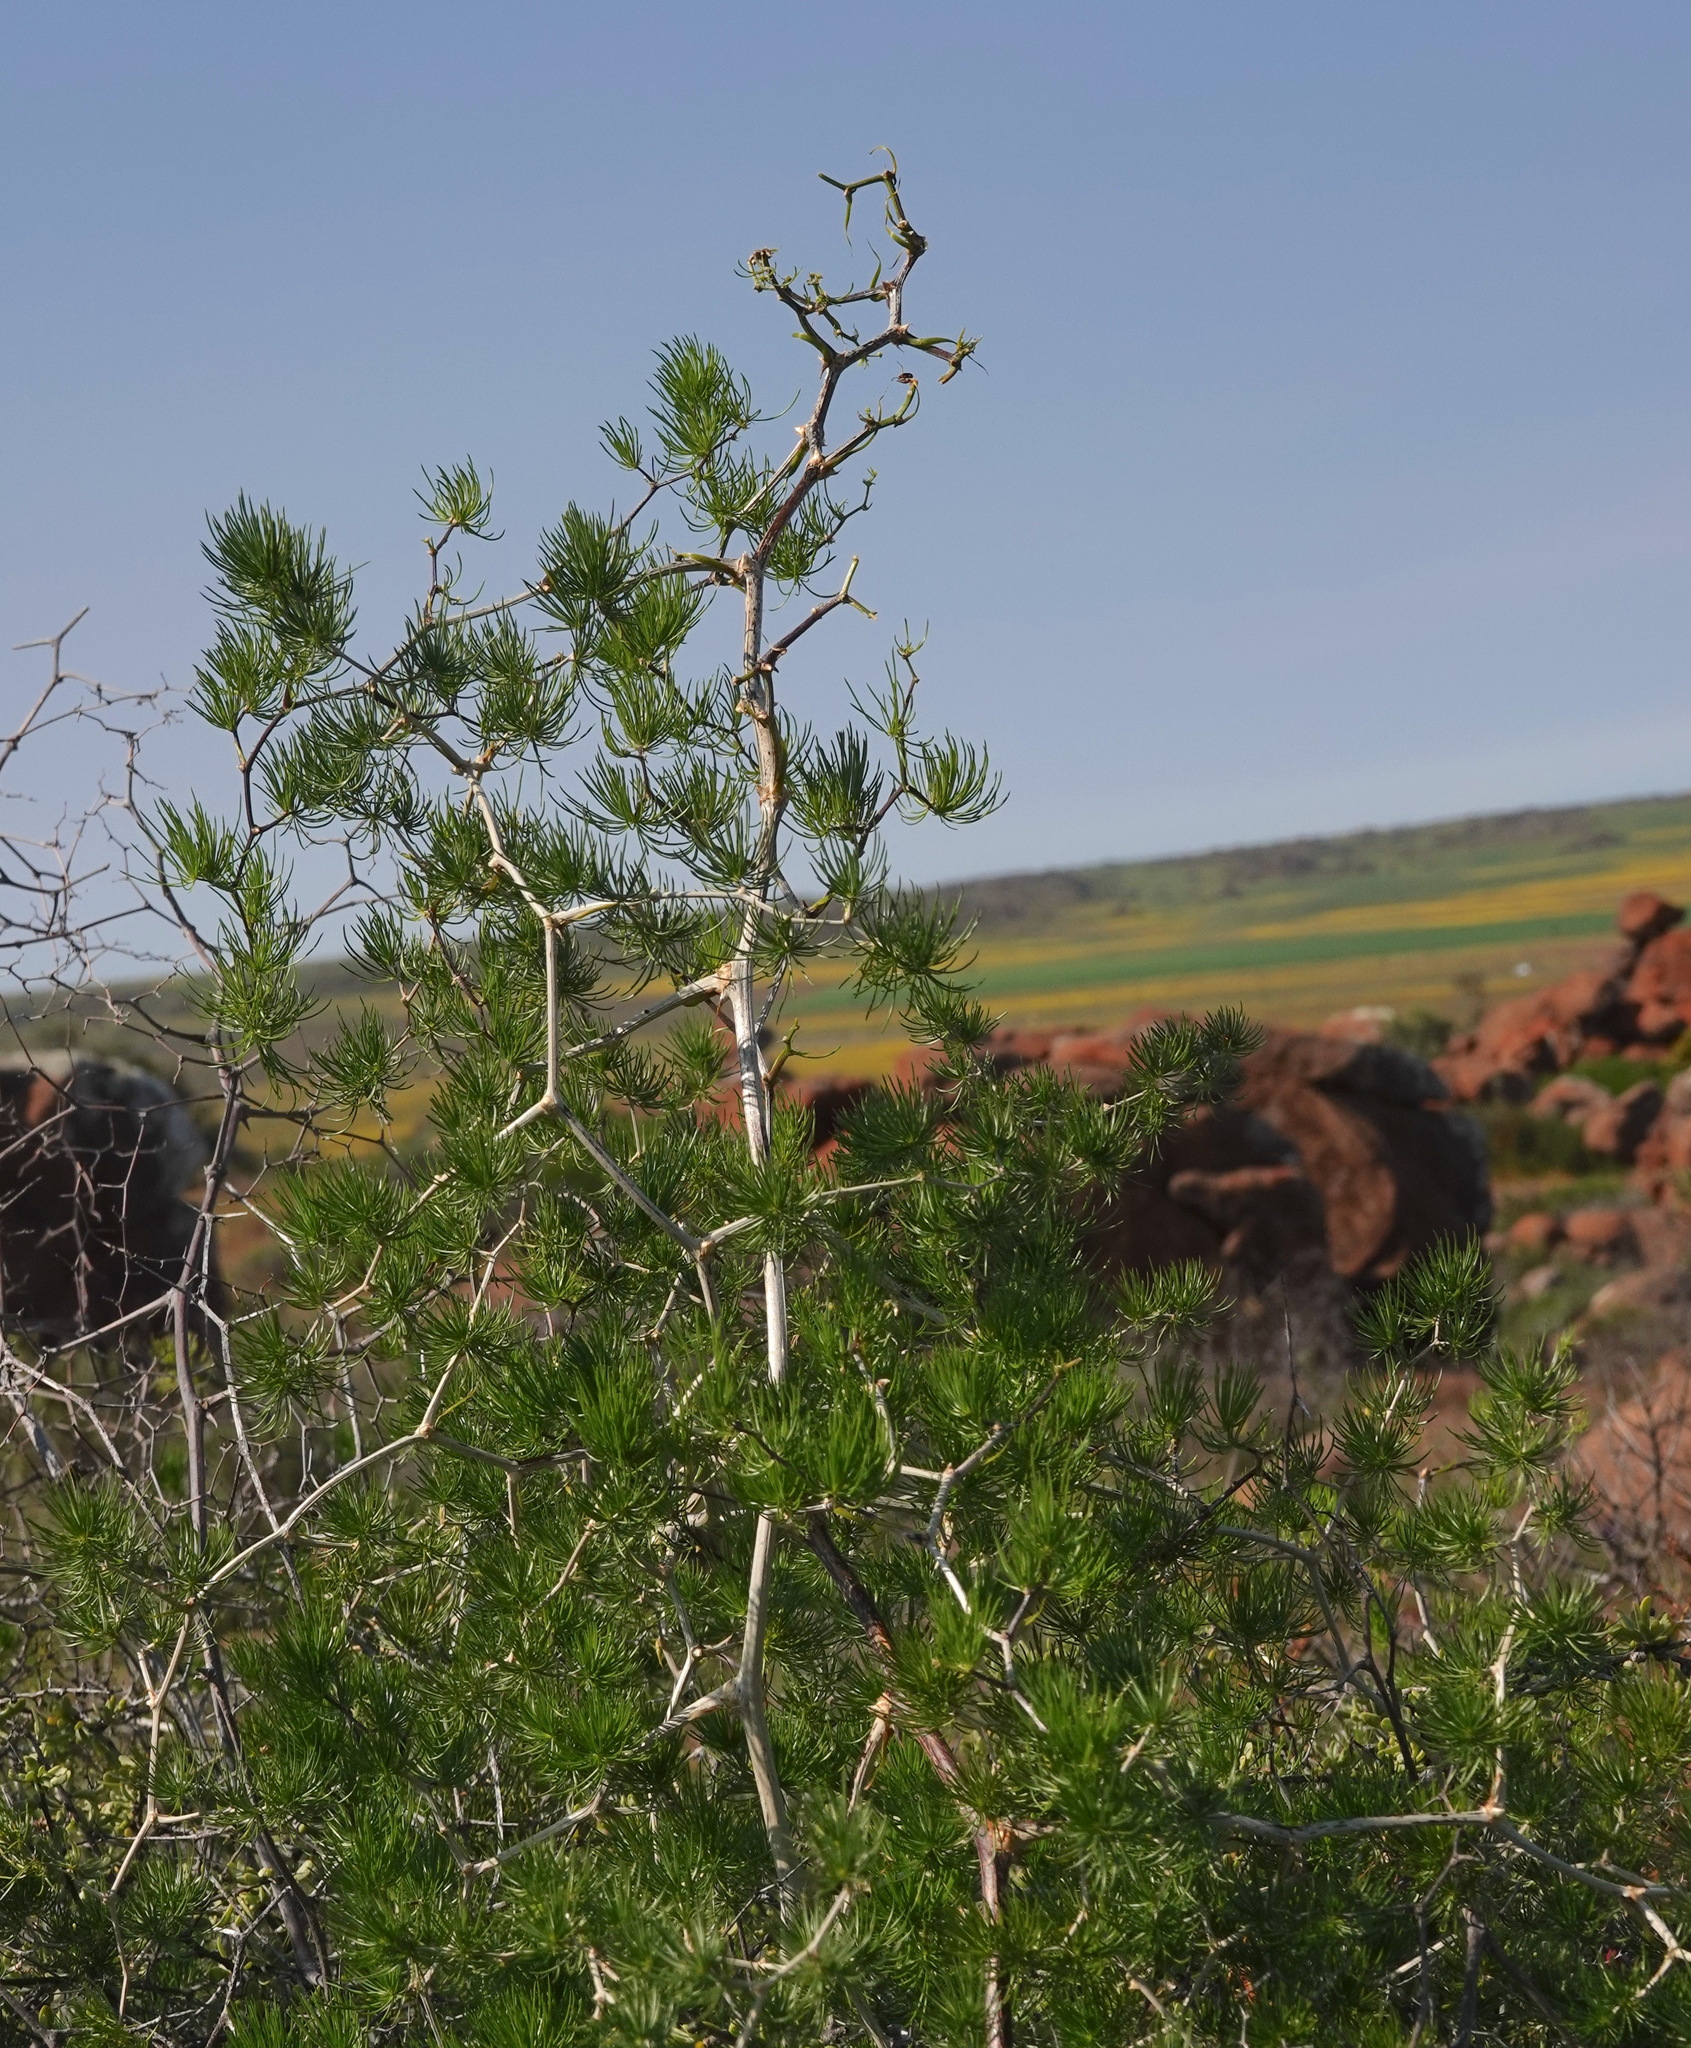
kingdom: Plantae
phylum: Tracheophyta
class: Liliopsida
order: Asparagales
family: Asparagaceae
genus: Asparagus
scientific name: Asparagus retrofractus
